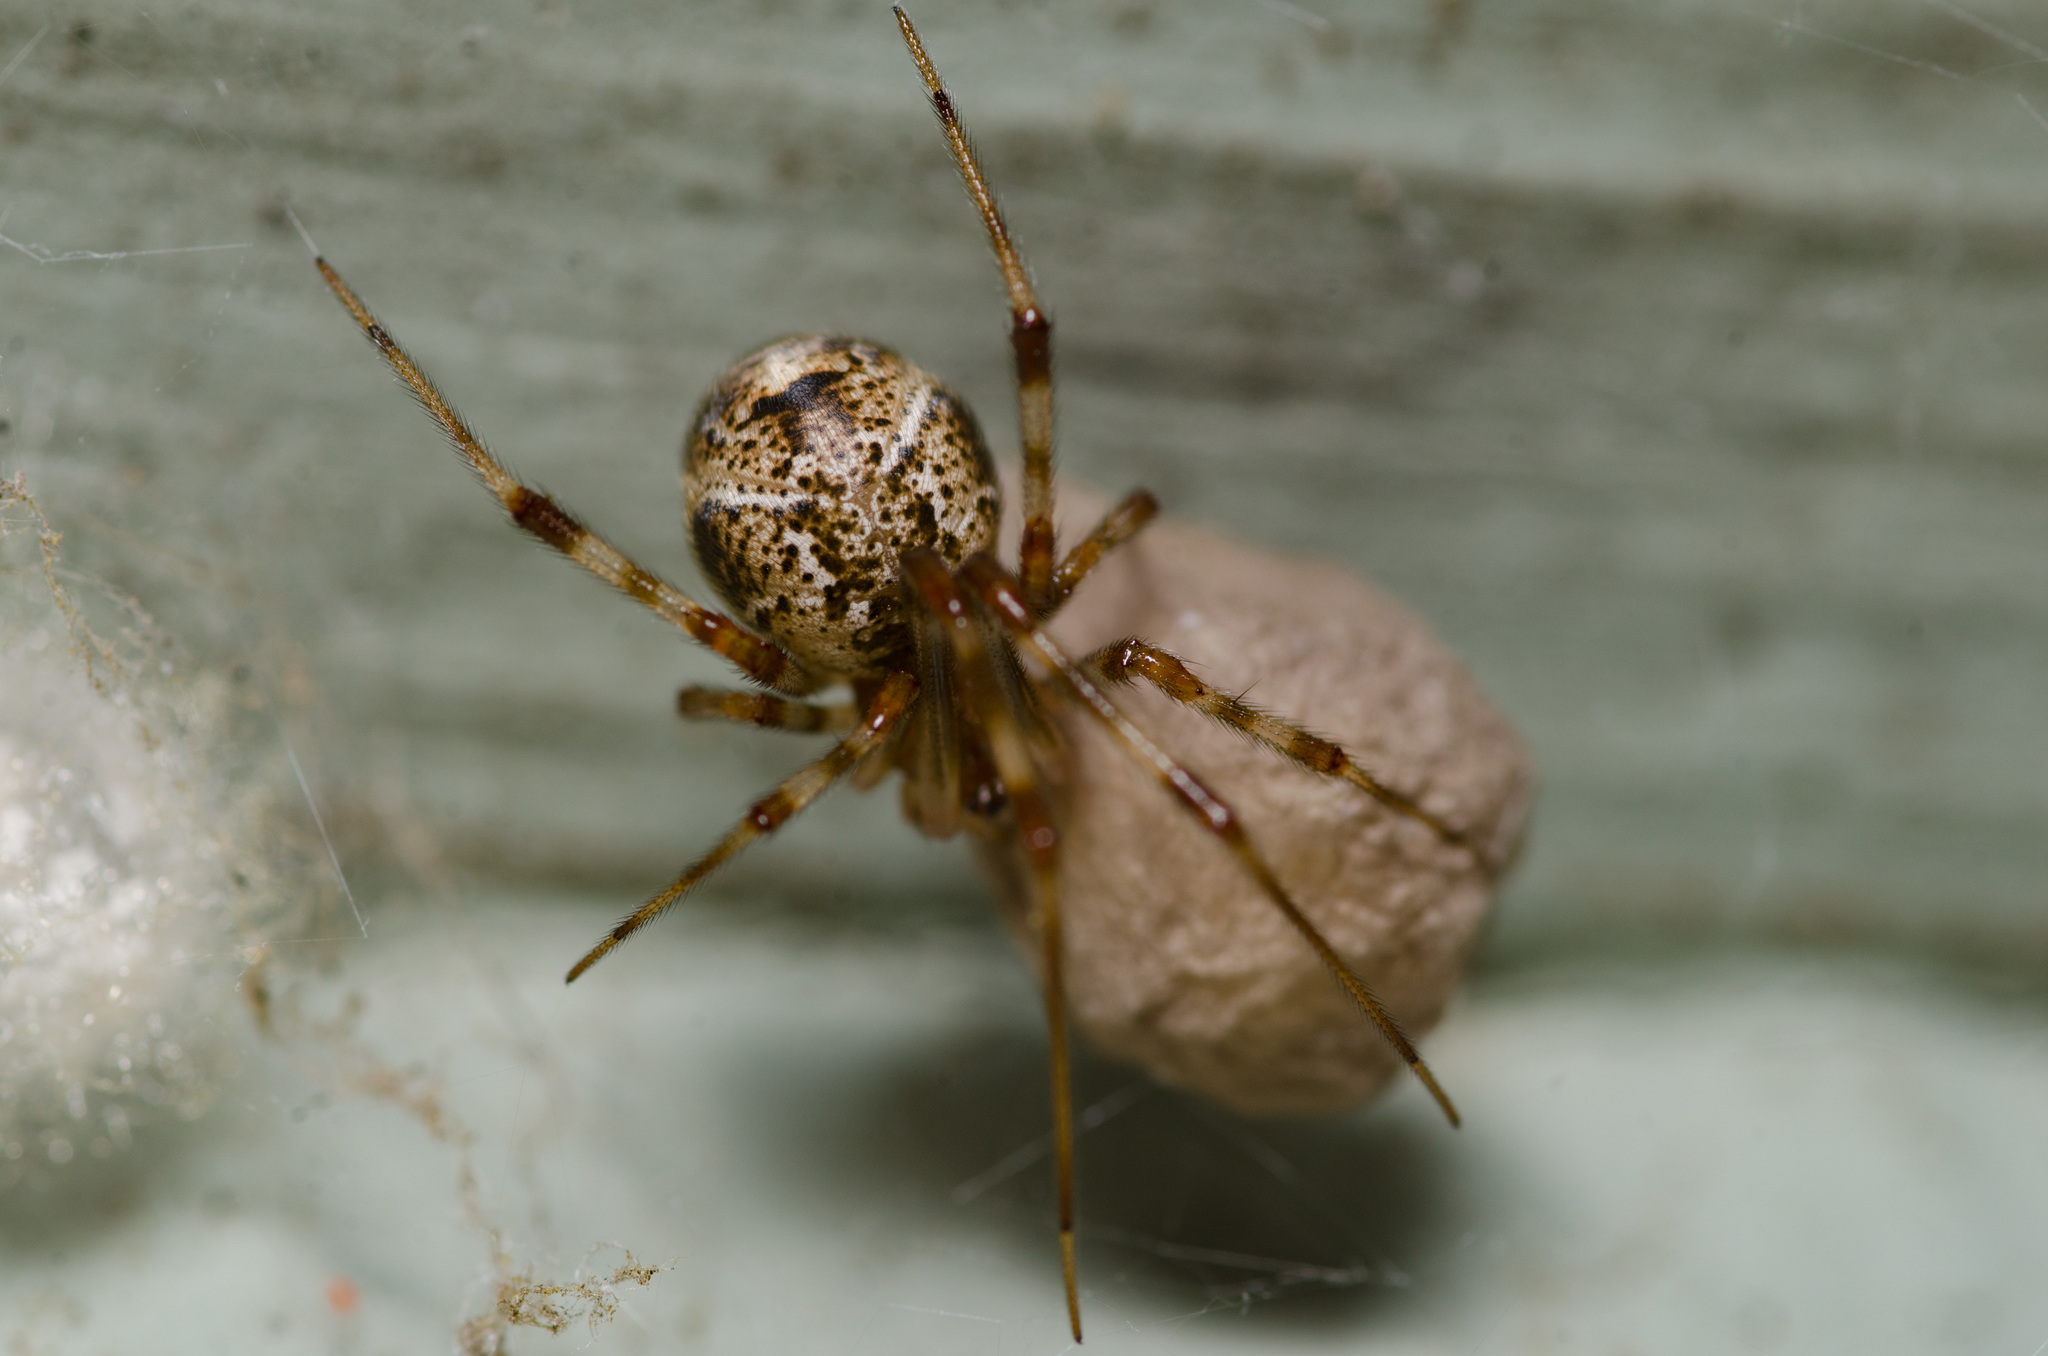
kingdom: Animalia
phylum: Arthropoda
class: Arachnida
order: Araneae
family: Theridiidae
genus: Parasteatoda
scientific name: Parasteatoda tepidariorum
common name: Common house spider
